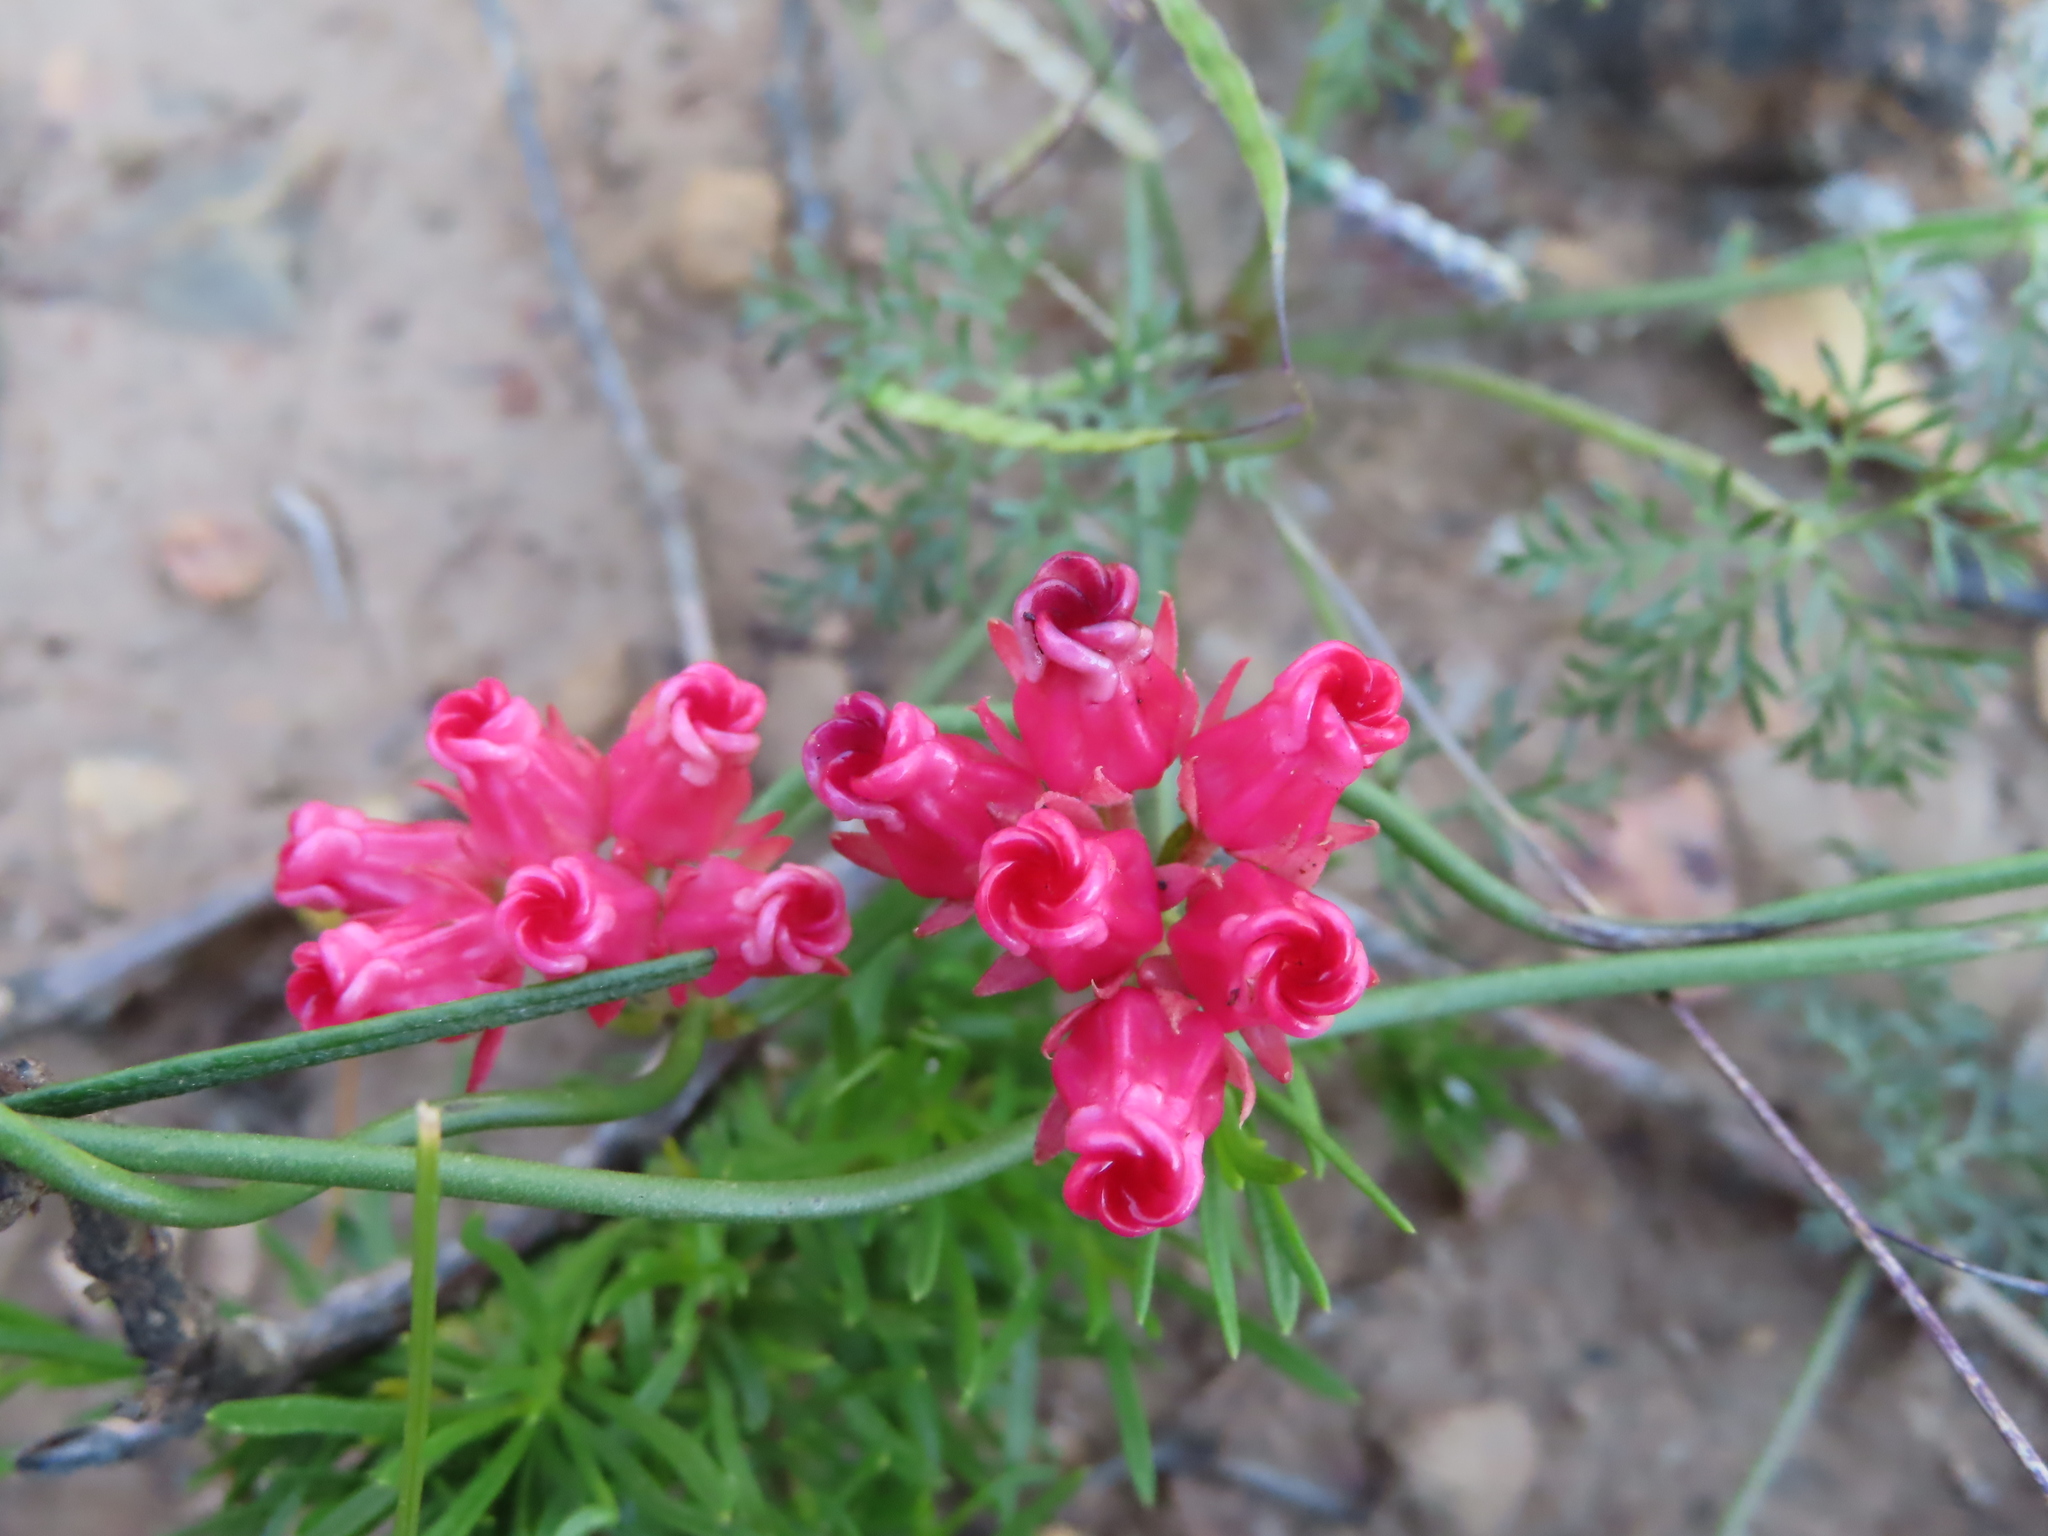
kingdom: Plantae
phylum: Tracheophyta
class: Magnoliopsida
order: Gentianales
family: Apocynaceae
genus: Microloma
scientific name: Microloma tenuifolium
